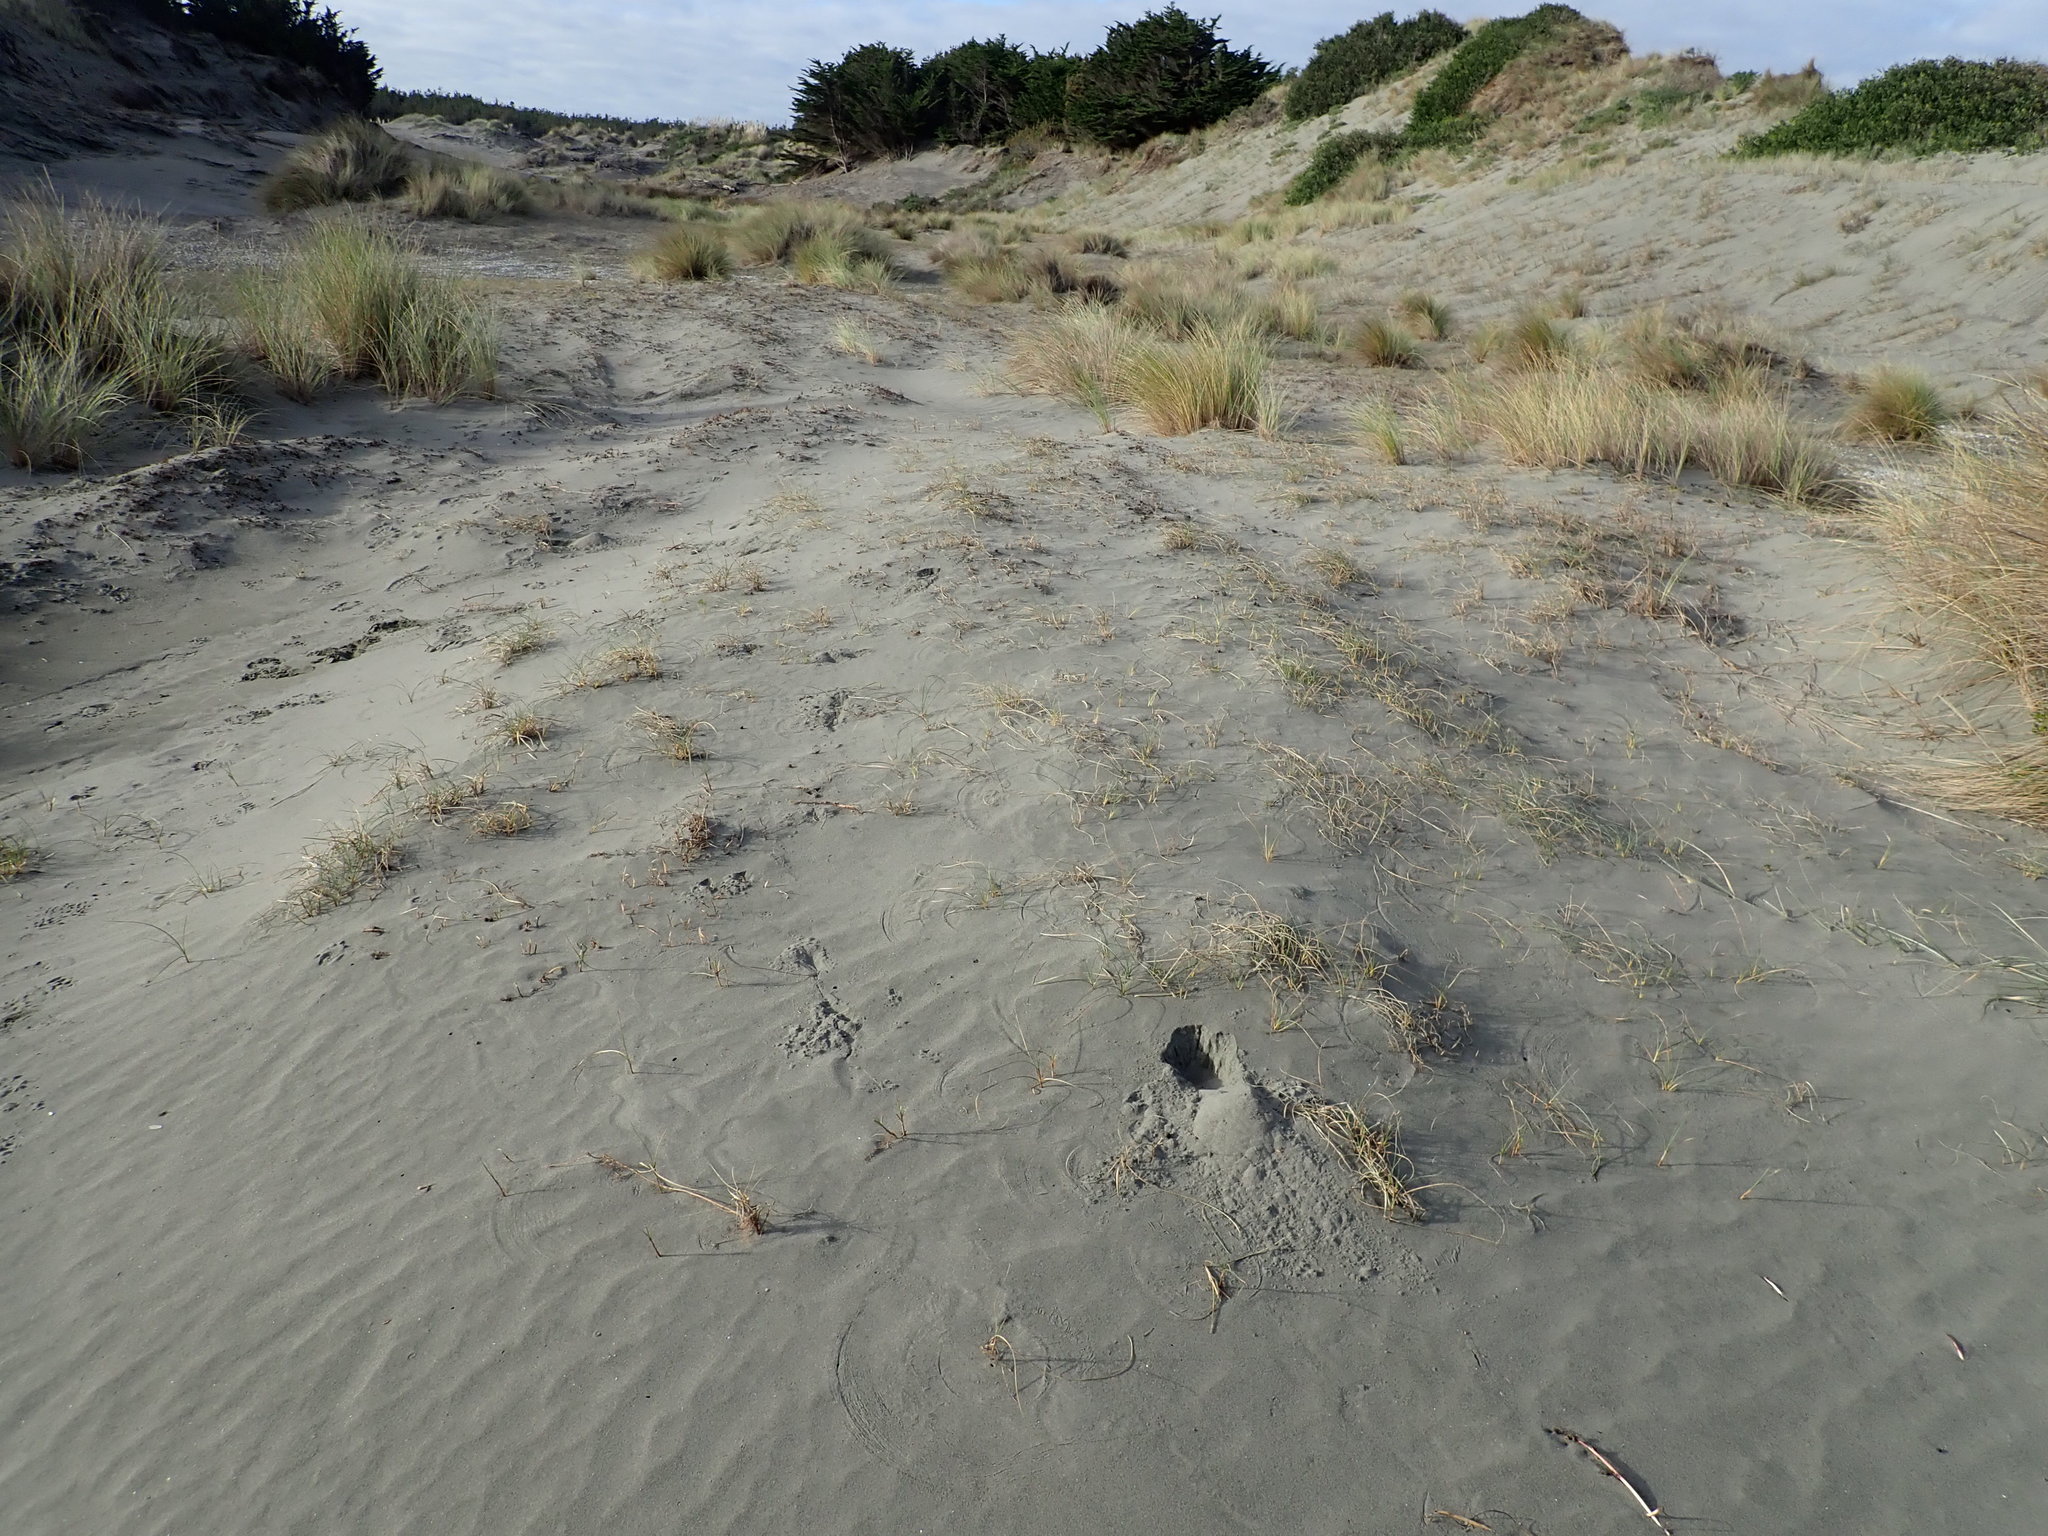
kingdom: Plantae
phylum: Tracheophyta
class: Liliopsida
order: Poales
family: Cyperaceae
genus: Carex
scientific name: Carex pumila
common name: Dwarf sedge
